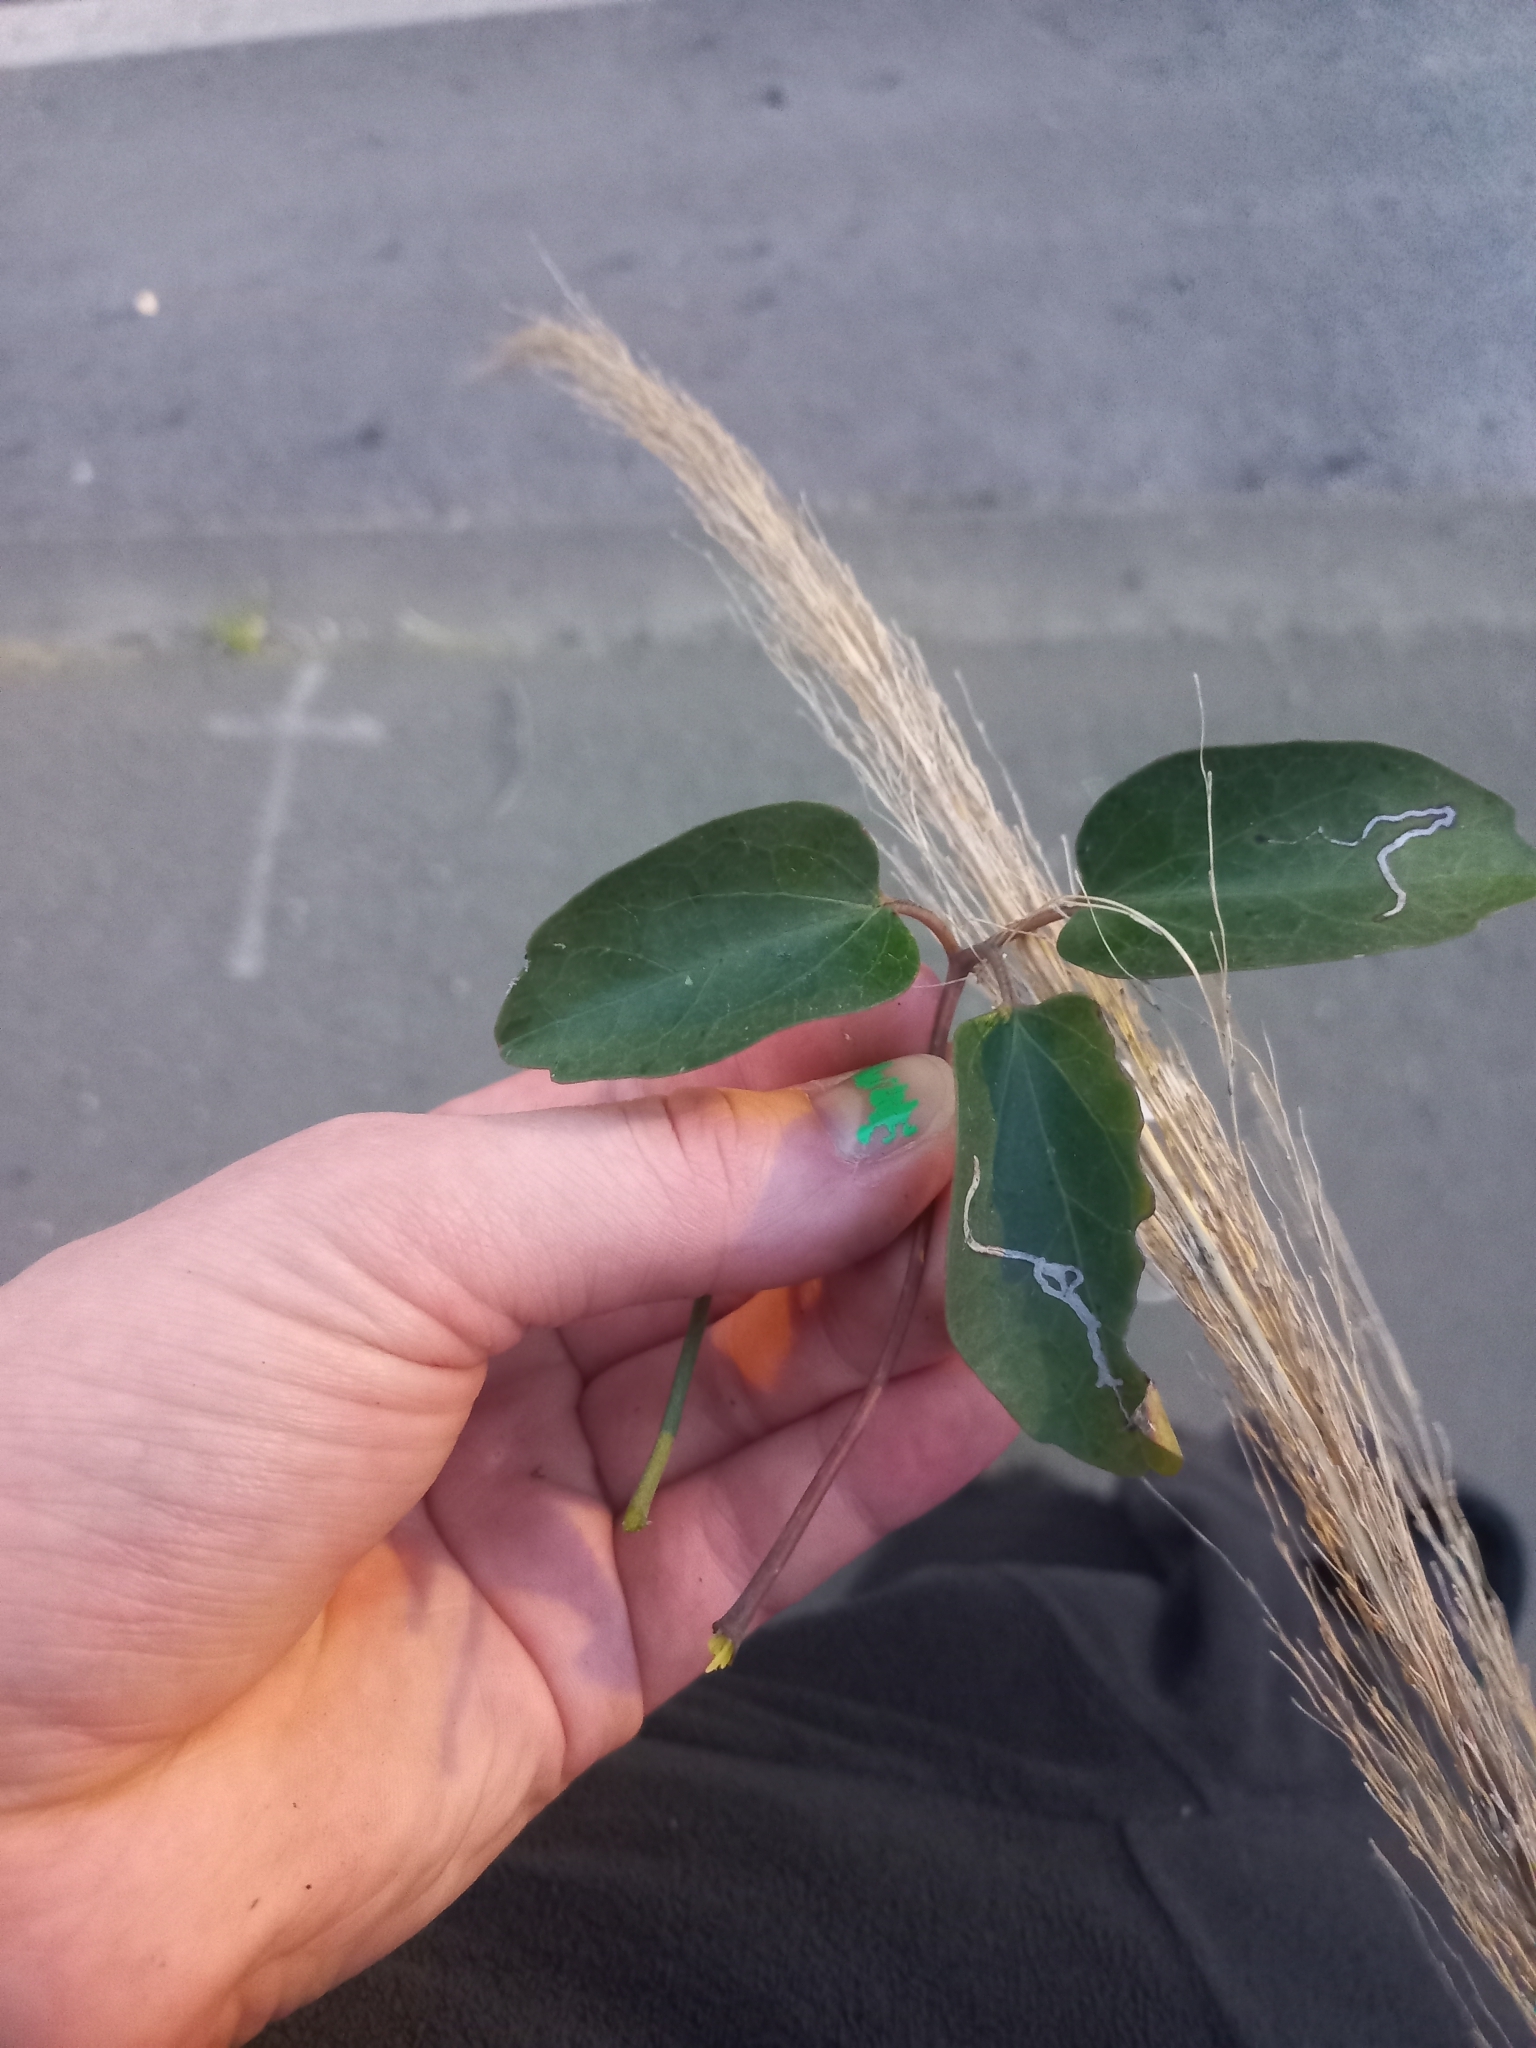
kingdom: Plantae
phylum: Tracheophyta
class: Magnoliopsida
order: Ranunculales
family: Ranunculaceae
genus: Clematis
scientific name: Clematis paniculata
